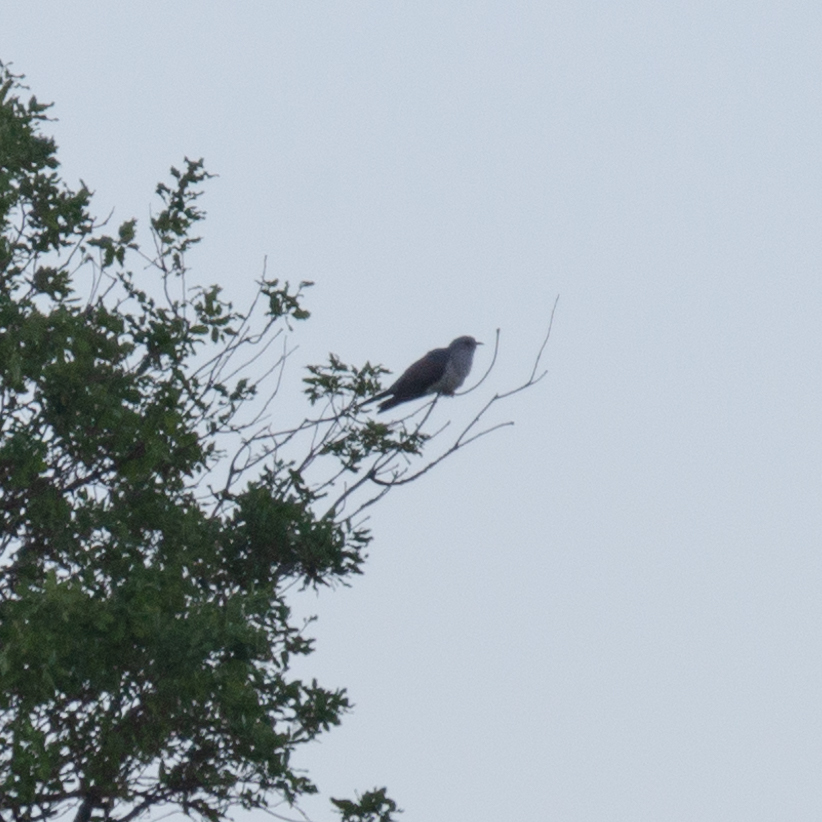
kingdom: Animalia
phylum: Chordata
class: Aves
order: Cuculiformes
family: Cuculidae
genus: Cuculus
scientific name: Cuculus canorus
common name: Common cuckoo
